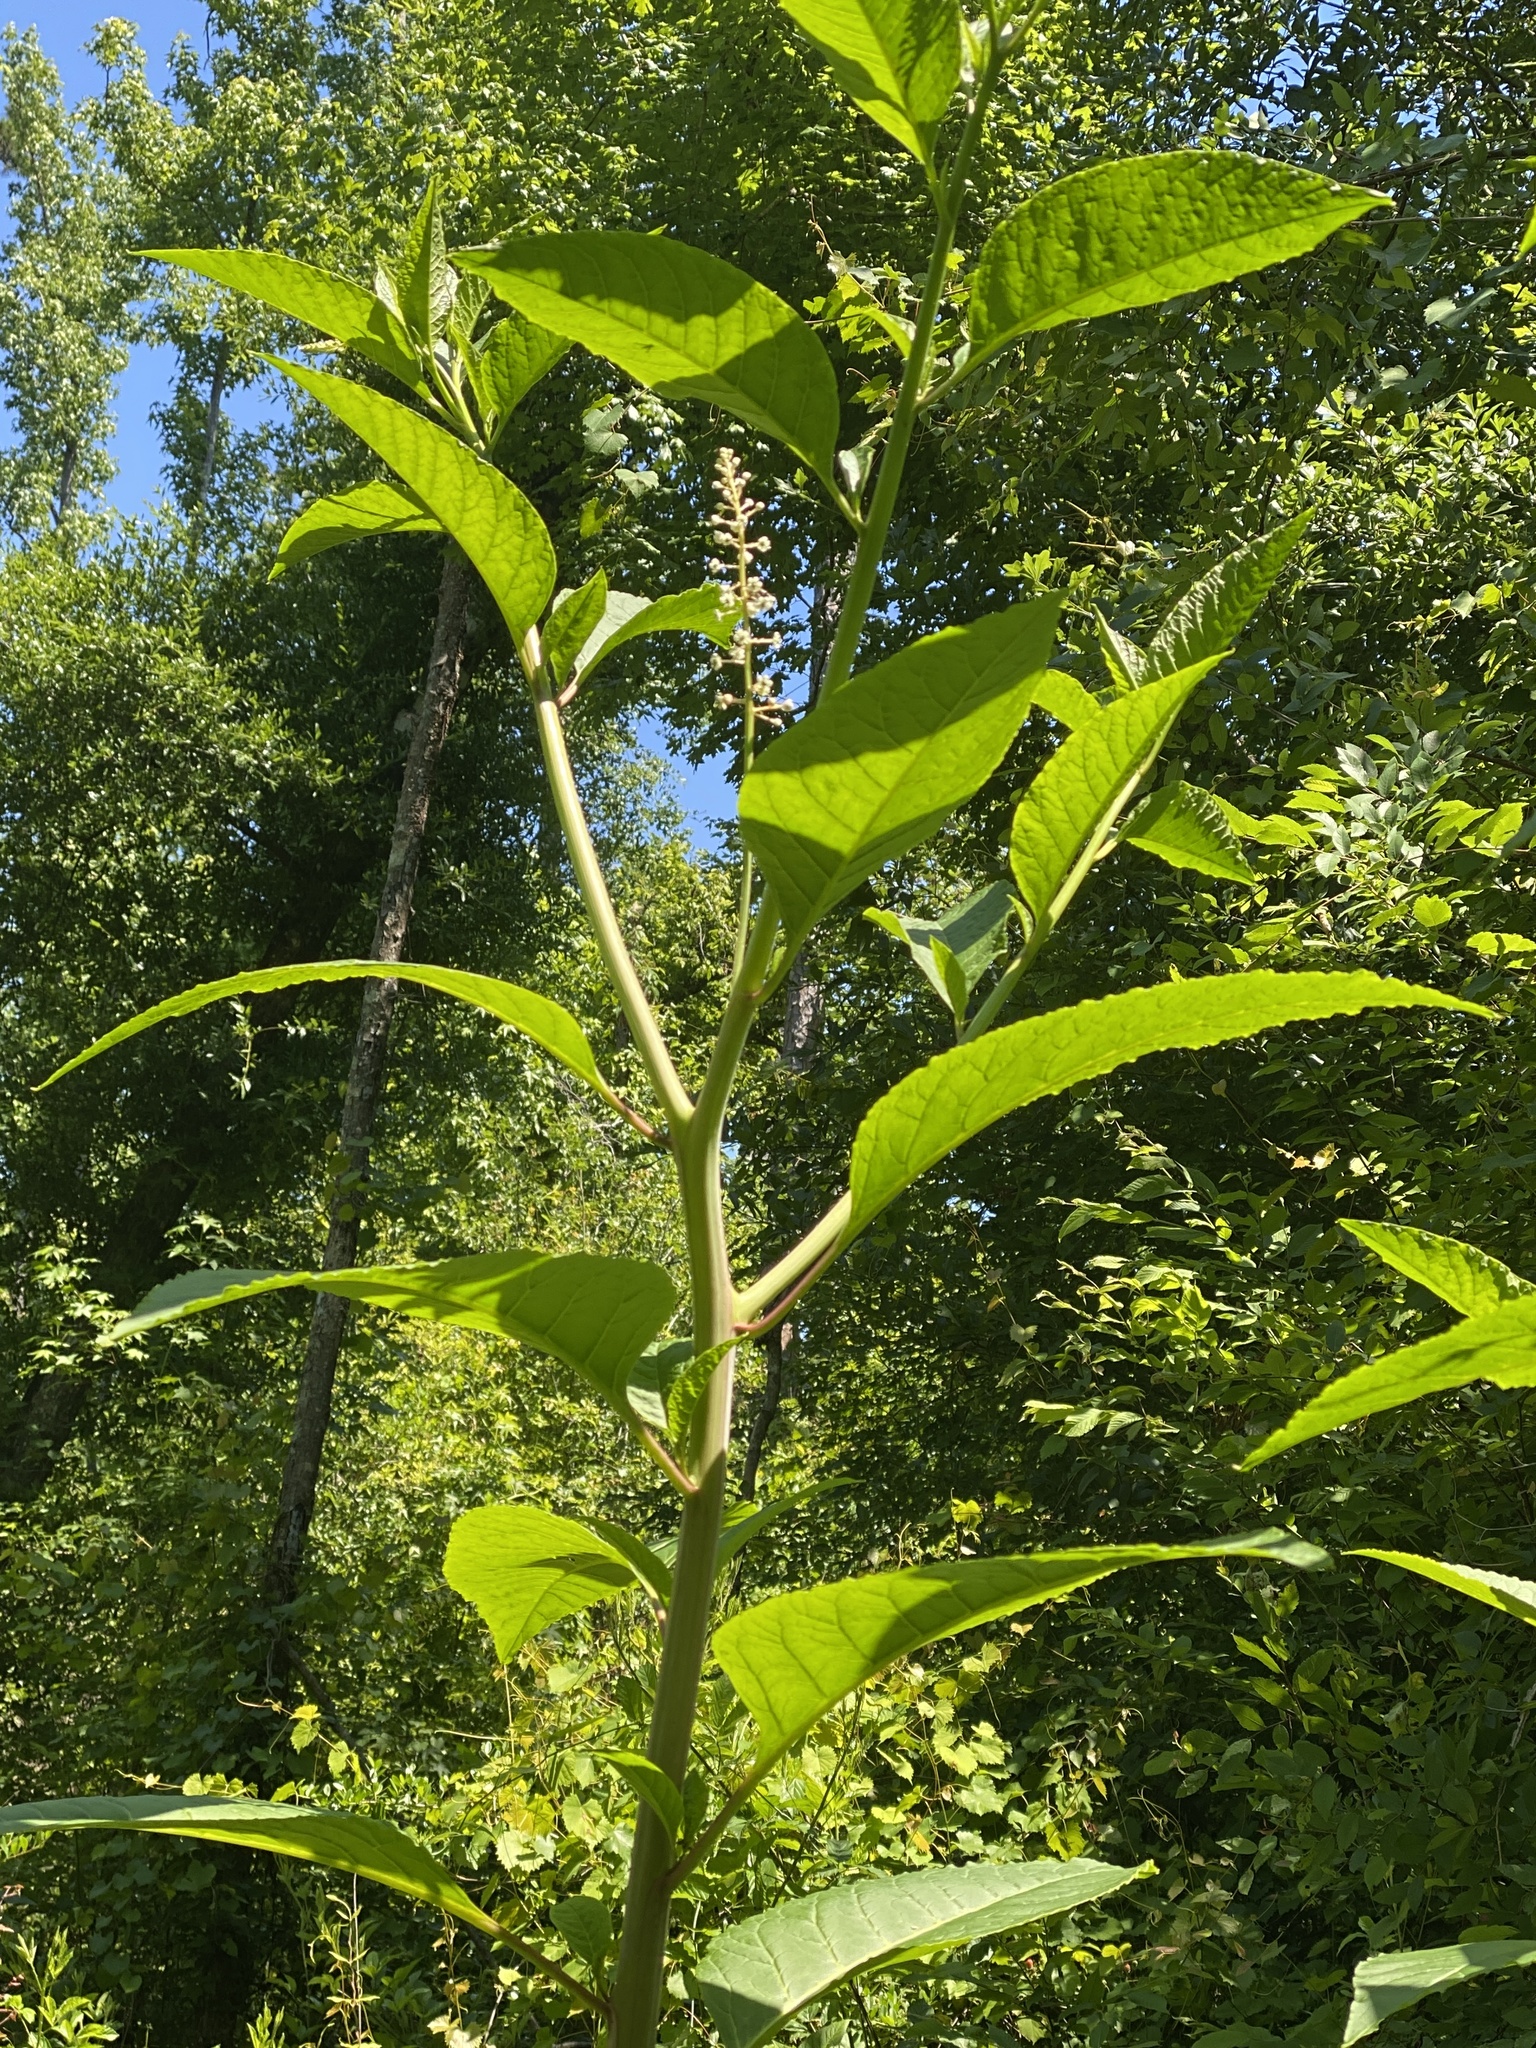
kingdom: Plantae
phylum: Tracheophyta
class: Magnoliopsida
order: Caryophyllales
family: Phytolaccaceae
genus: Phytolacca
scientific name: Phytolacca americana
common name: American pokeweed
